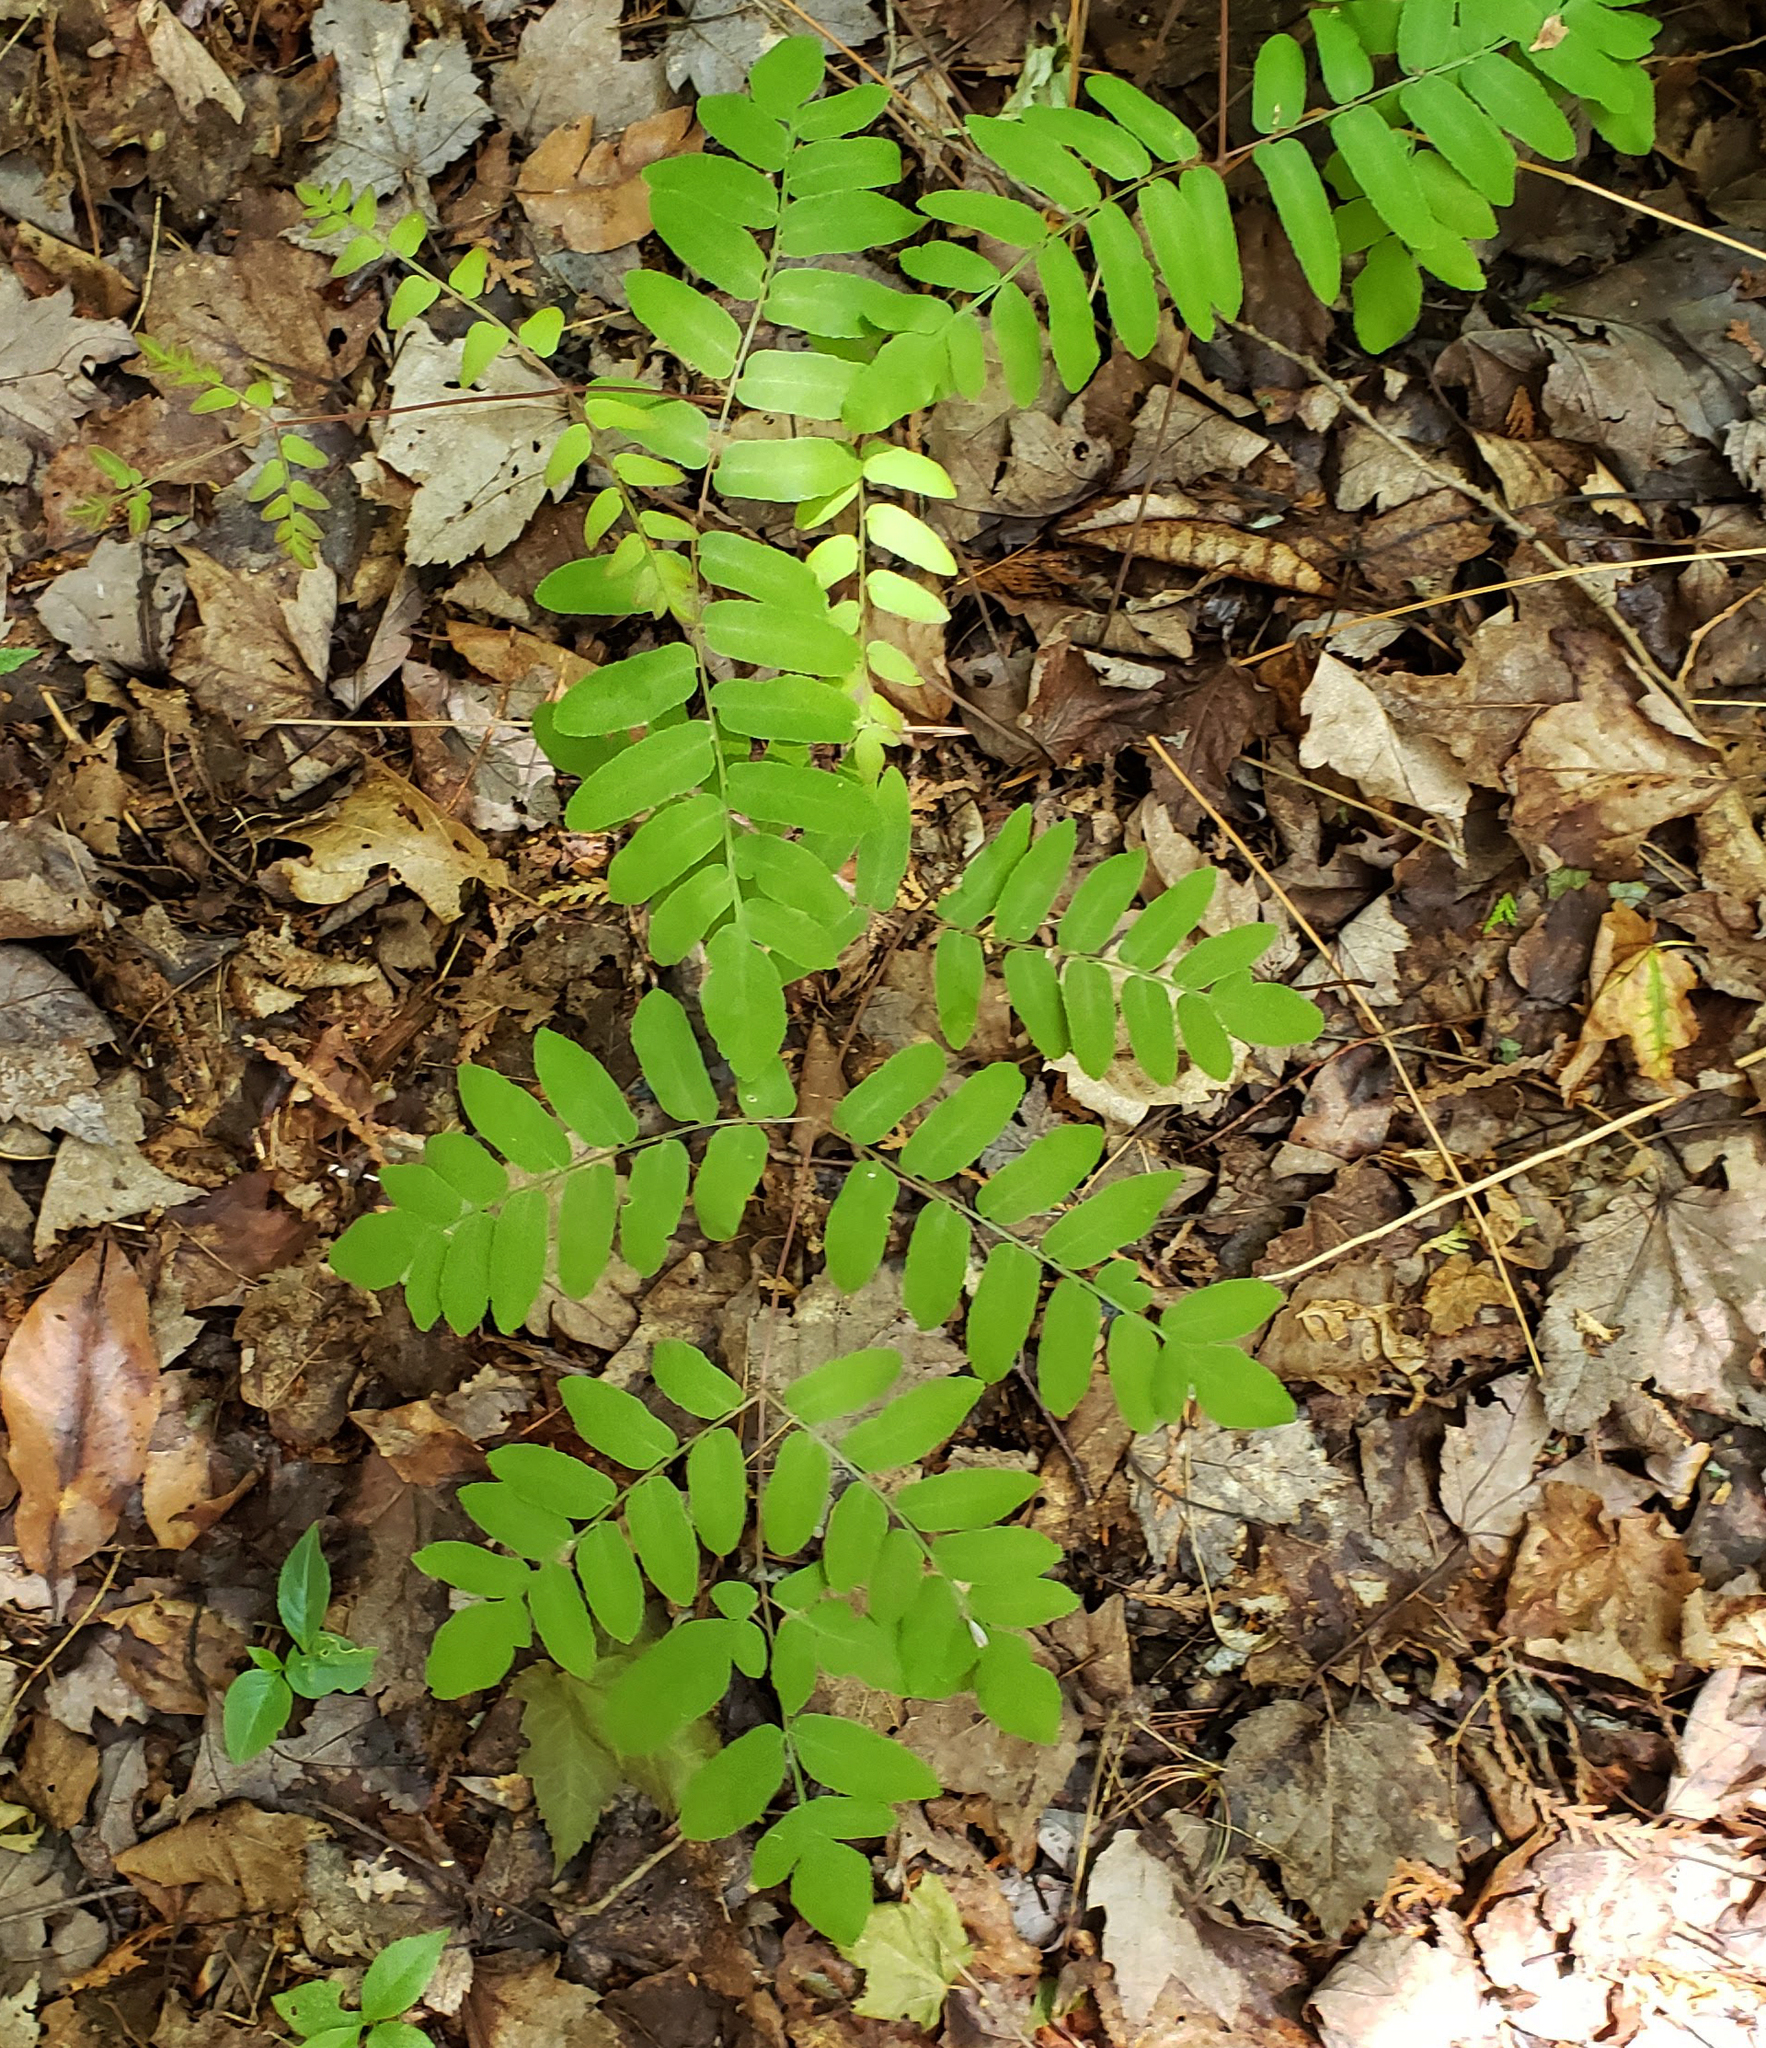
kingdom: Plantae
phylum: Tracheophyta
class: Polypodiopsida
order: Osmundales
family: Osmundaceae
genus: Osmunda
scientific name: Osmunda spectabilis
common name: American royal fern
